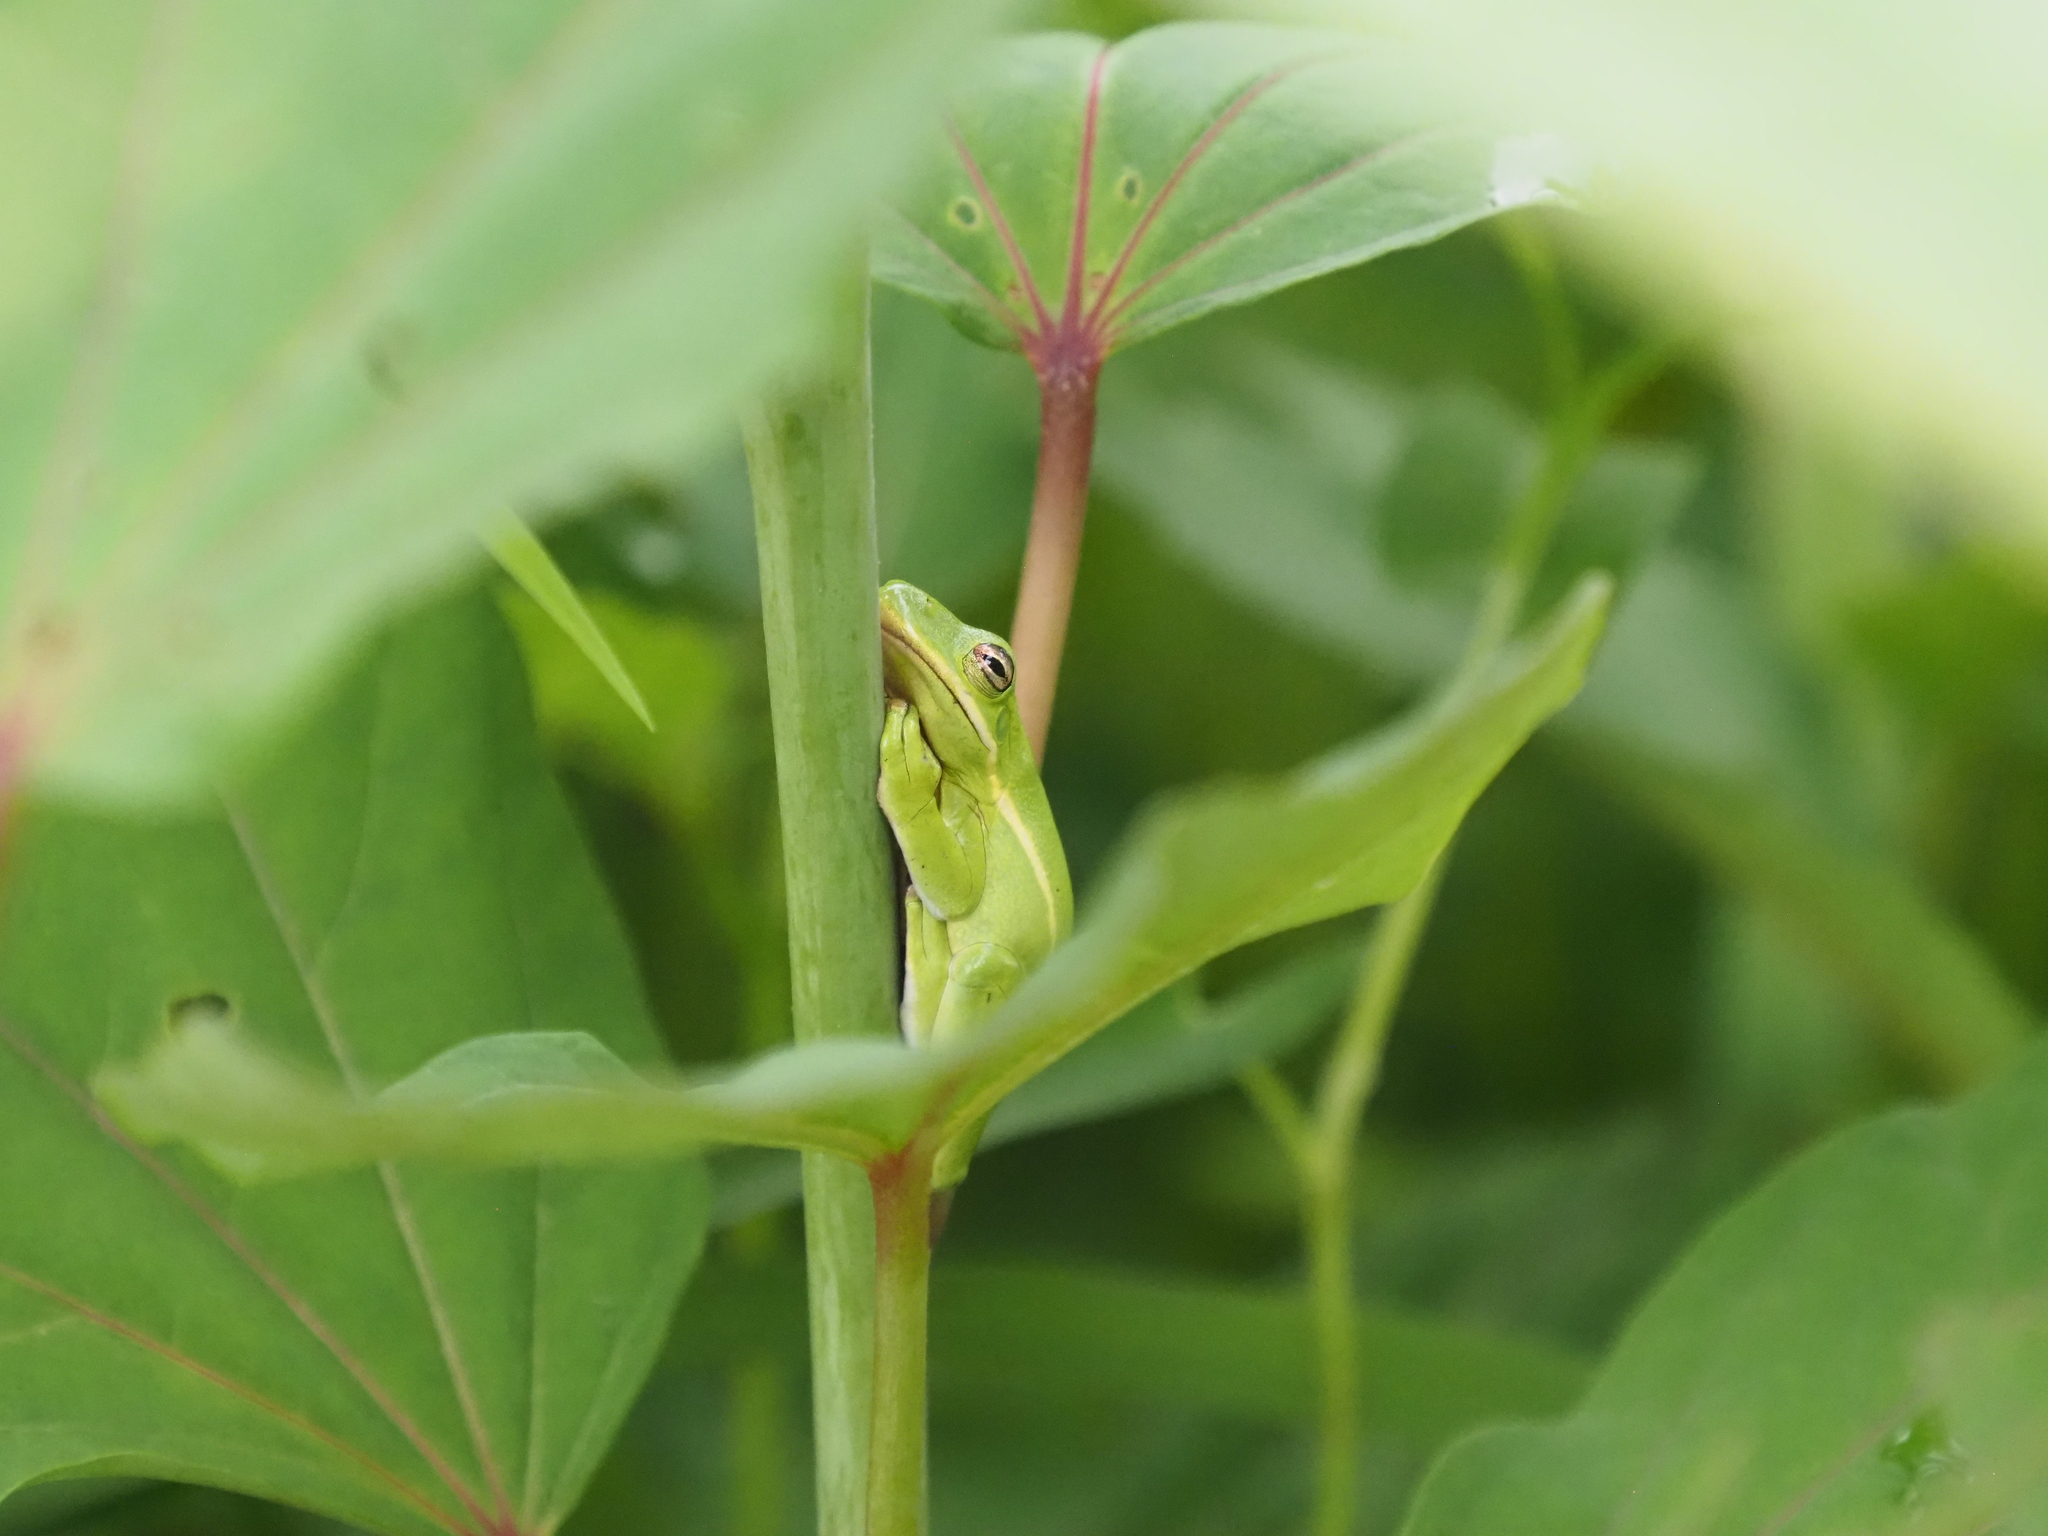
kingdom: Animalia
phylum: Chordata
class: Amphibia
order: Anura
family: Hylidae
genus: Dryophytes
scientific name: Dryophytes cinereus
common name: Green treefrog
